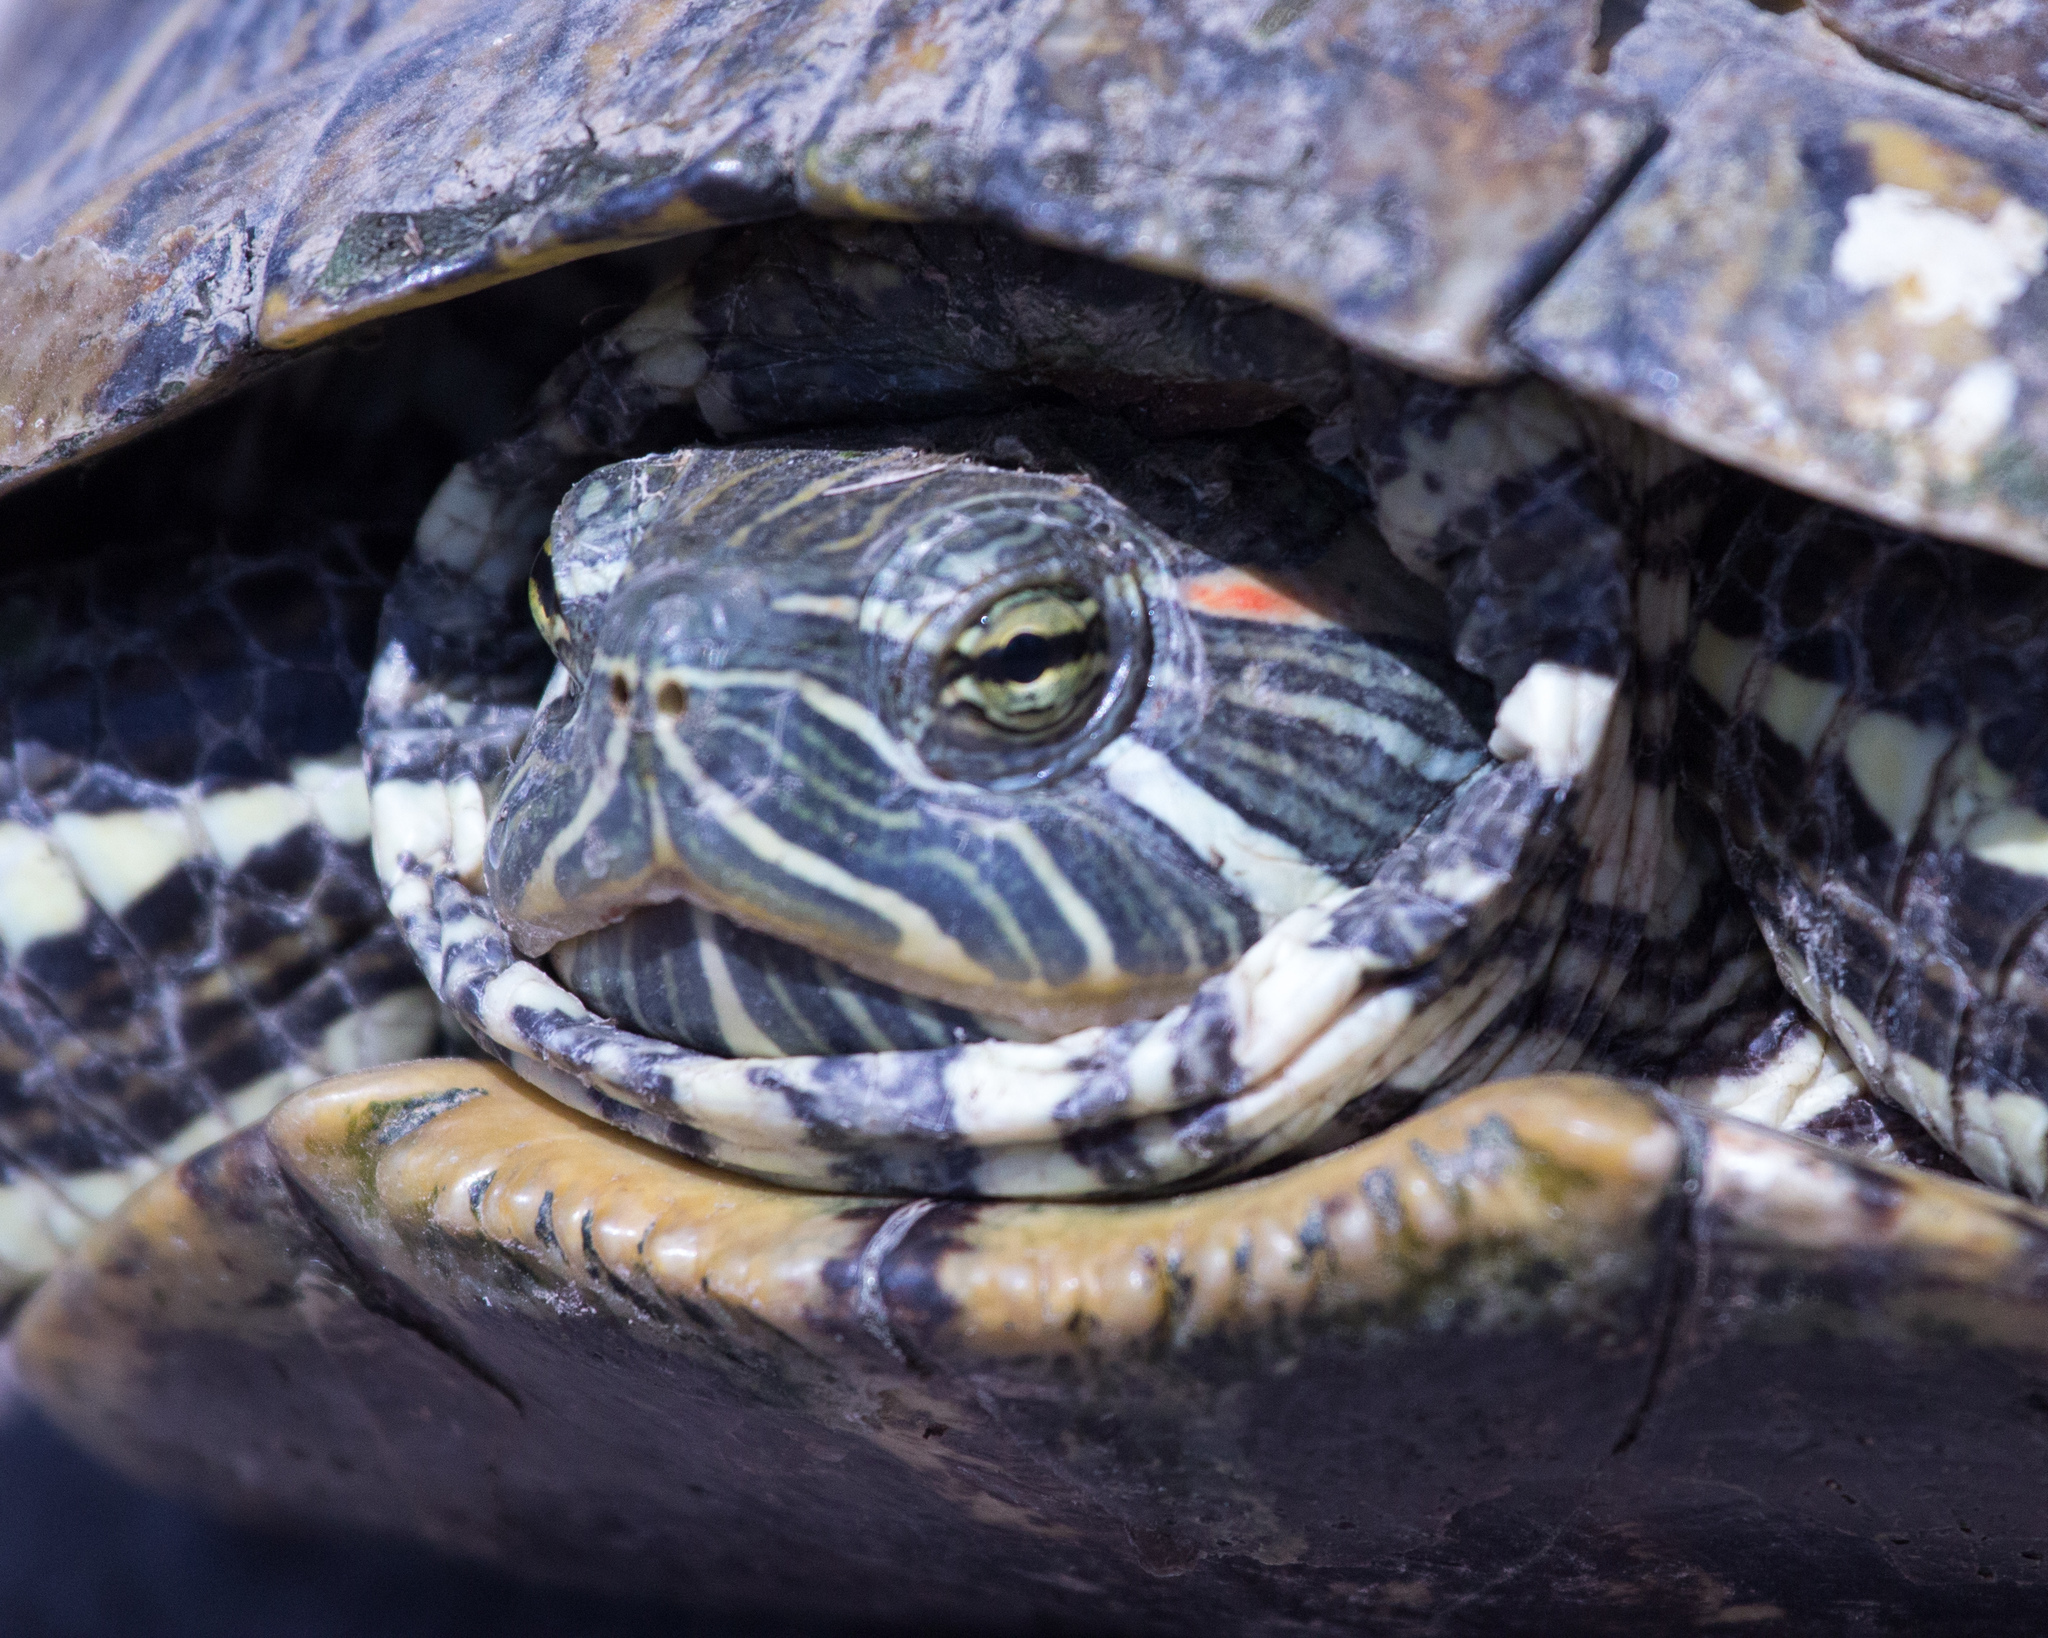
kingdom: Animalia
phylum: Chordata
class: Testudines
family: Emydidae
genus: Trachemys
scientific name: Trachemys scripta
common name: Slider
